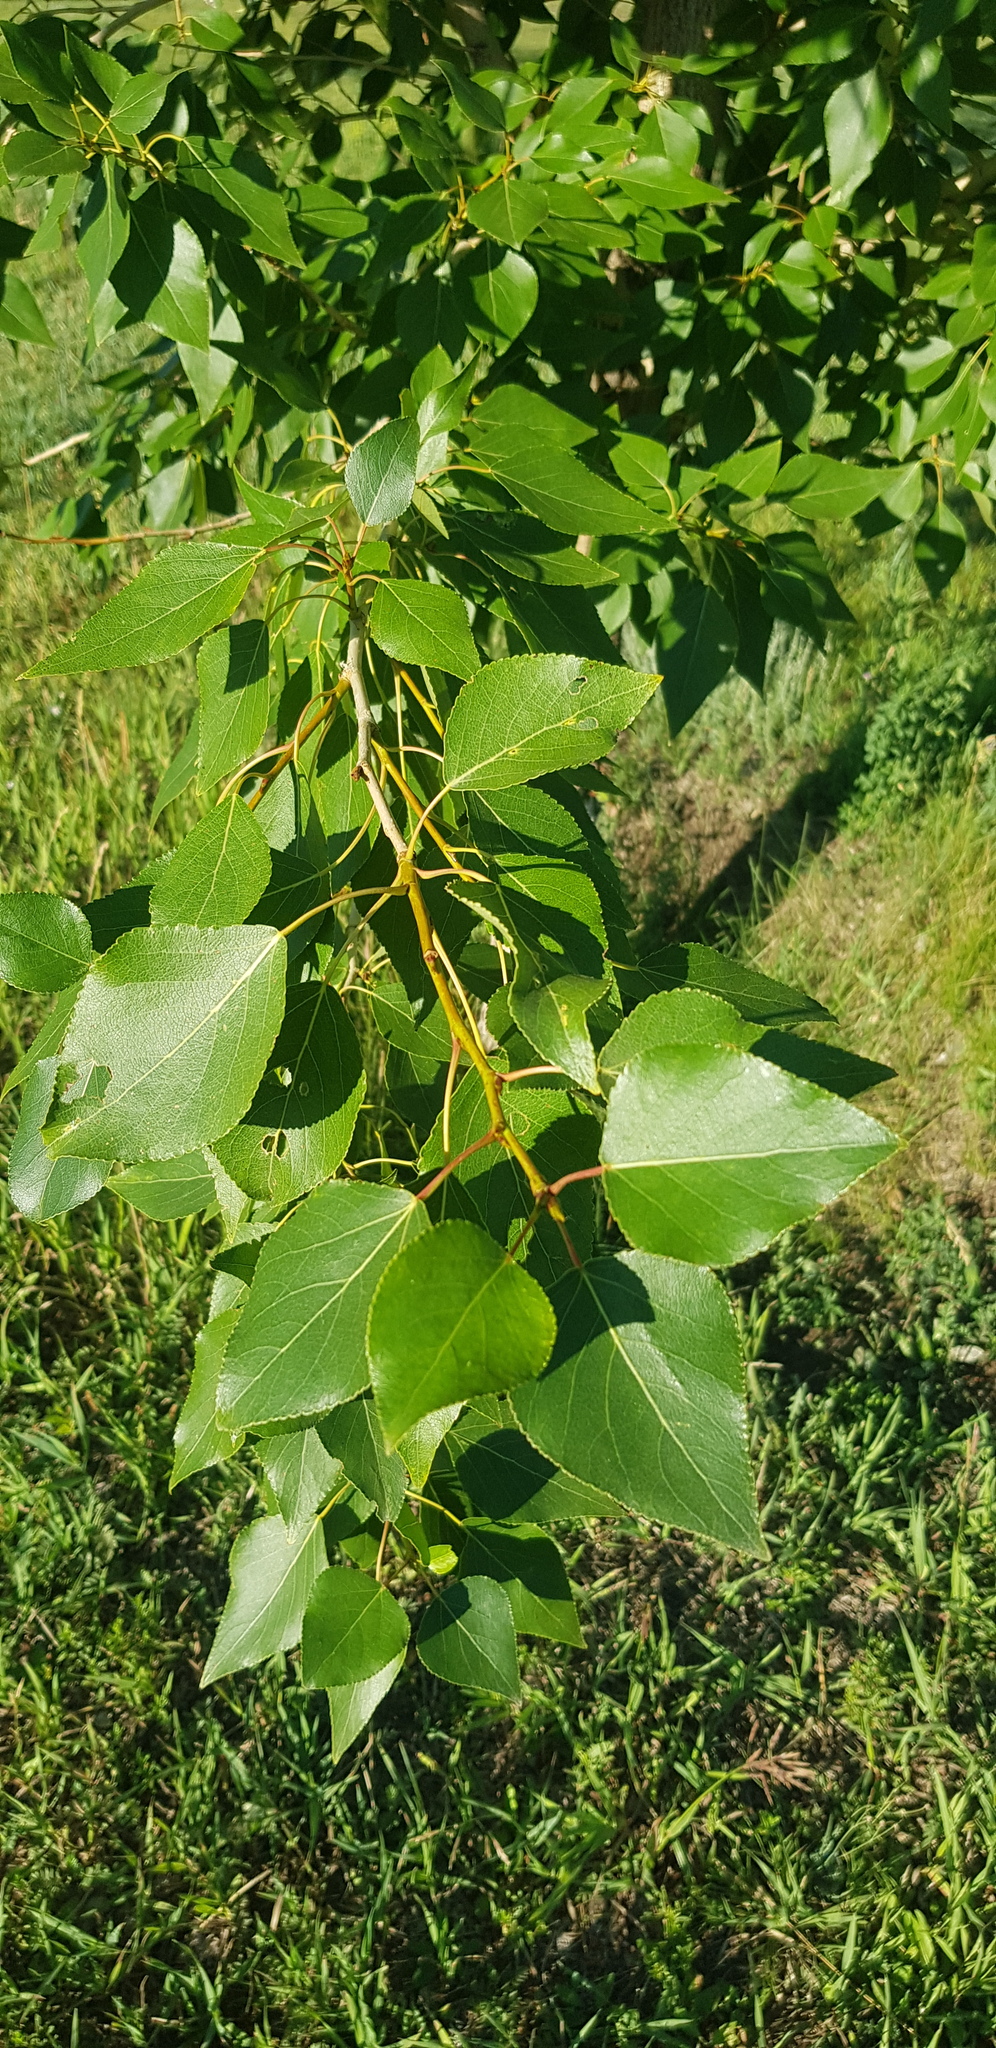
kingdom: Plantae
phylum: Tracheophyta
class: Magnoliopsida
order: Malpighiales
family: Salicaceae
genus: Populus
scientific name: Populus laurifolia
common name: Laurel-leaf poplar
